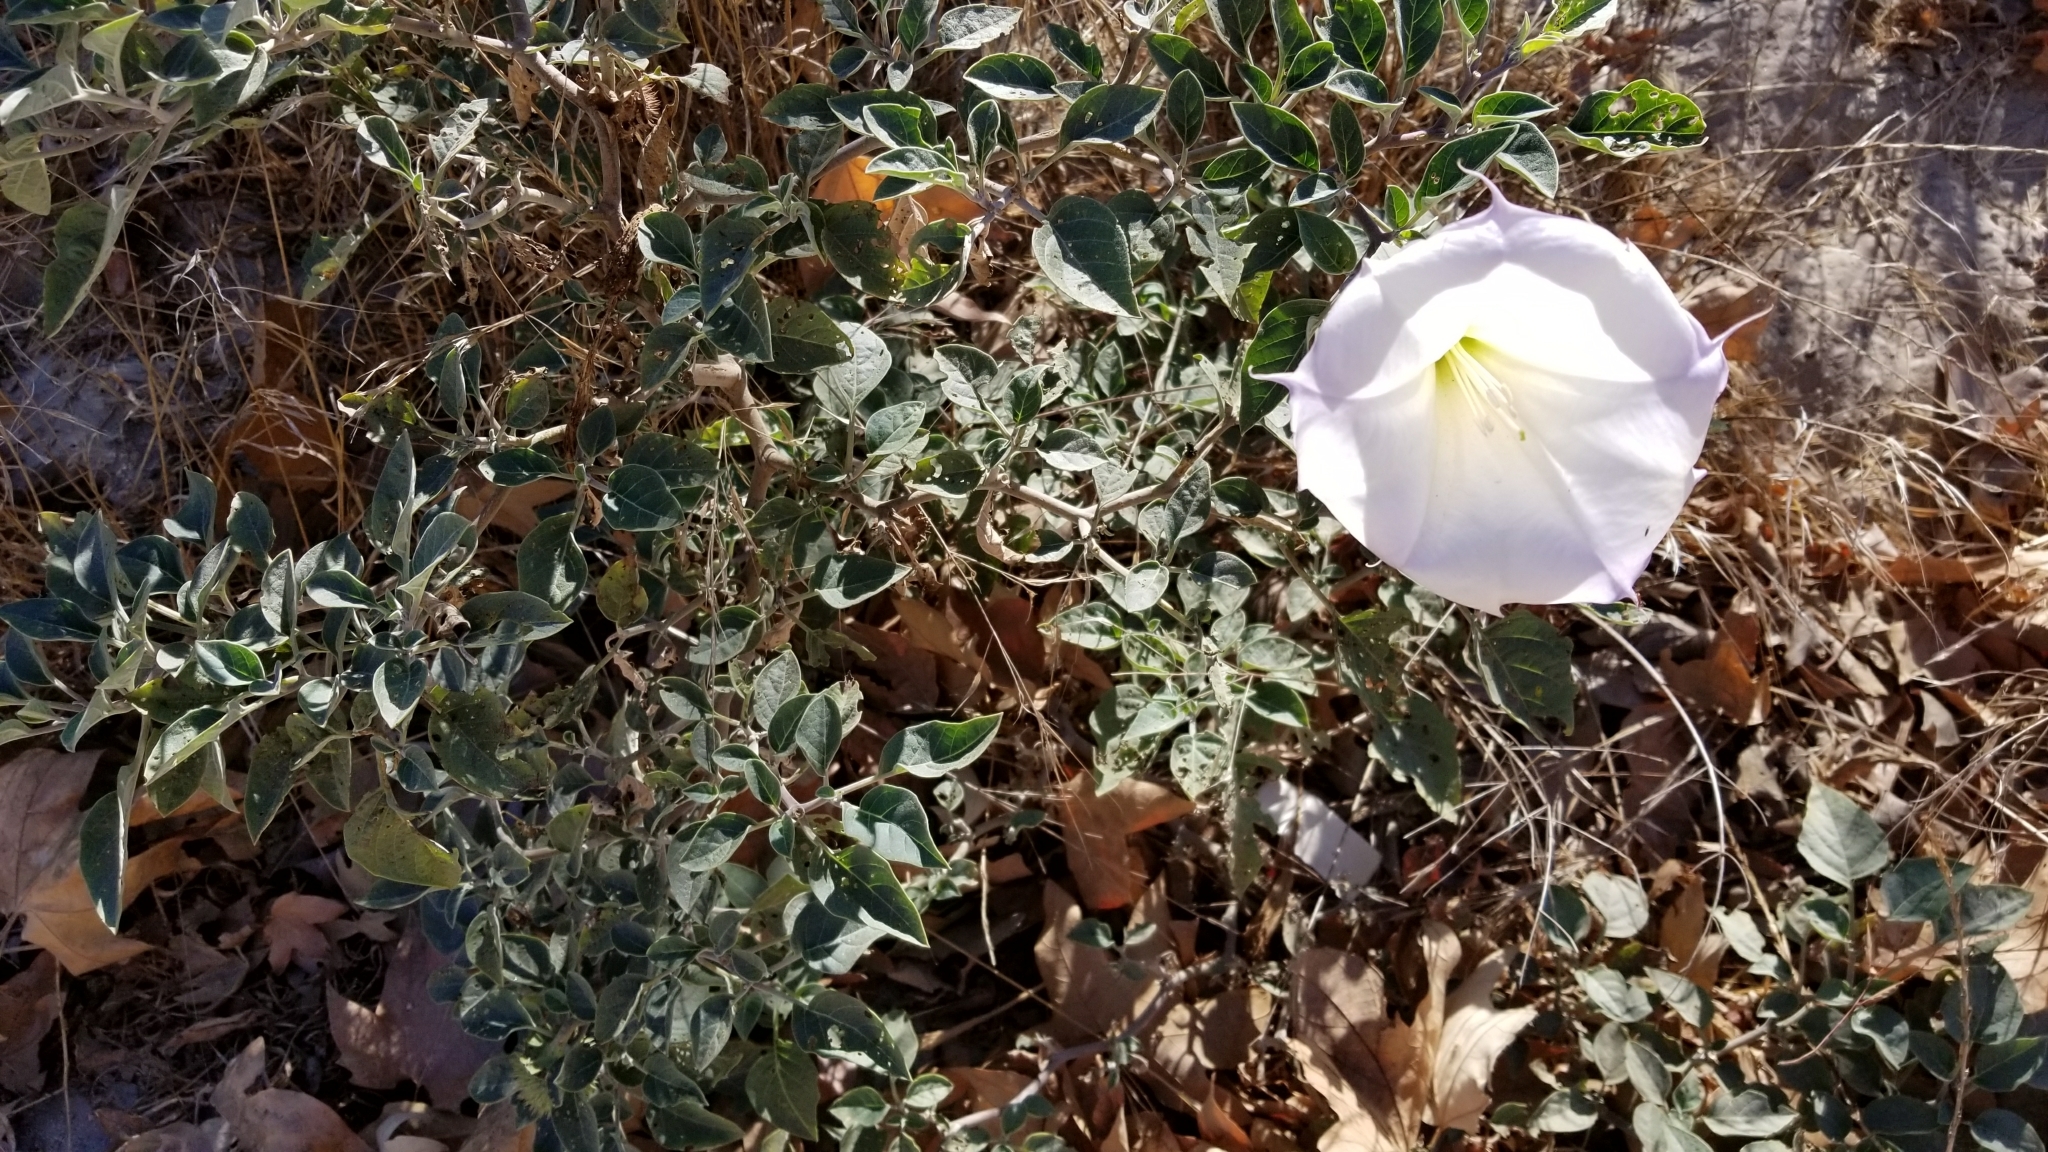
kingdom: Plantae
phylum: Tracheophyta
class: Magnoliopsida
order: Solanales
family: Solanaceae
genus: Datura
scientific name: Datura wrightii
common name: Sacred thorn-apple
